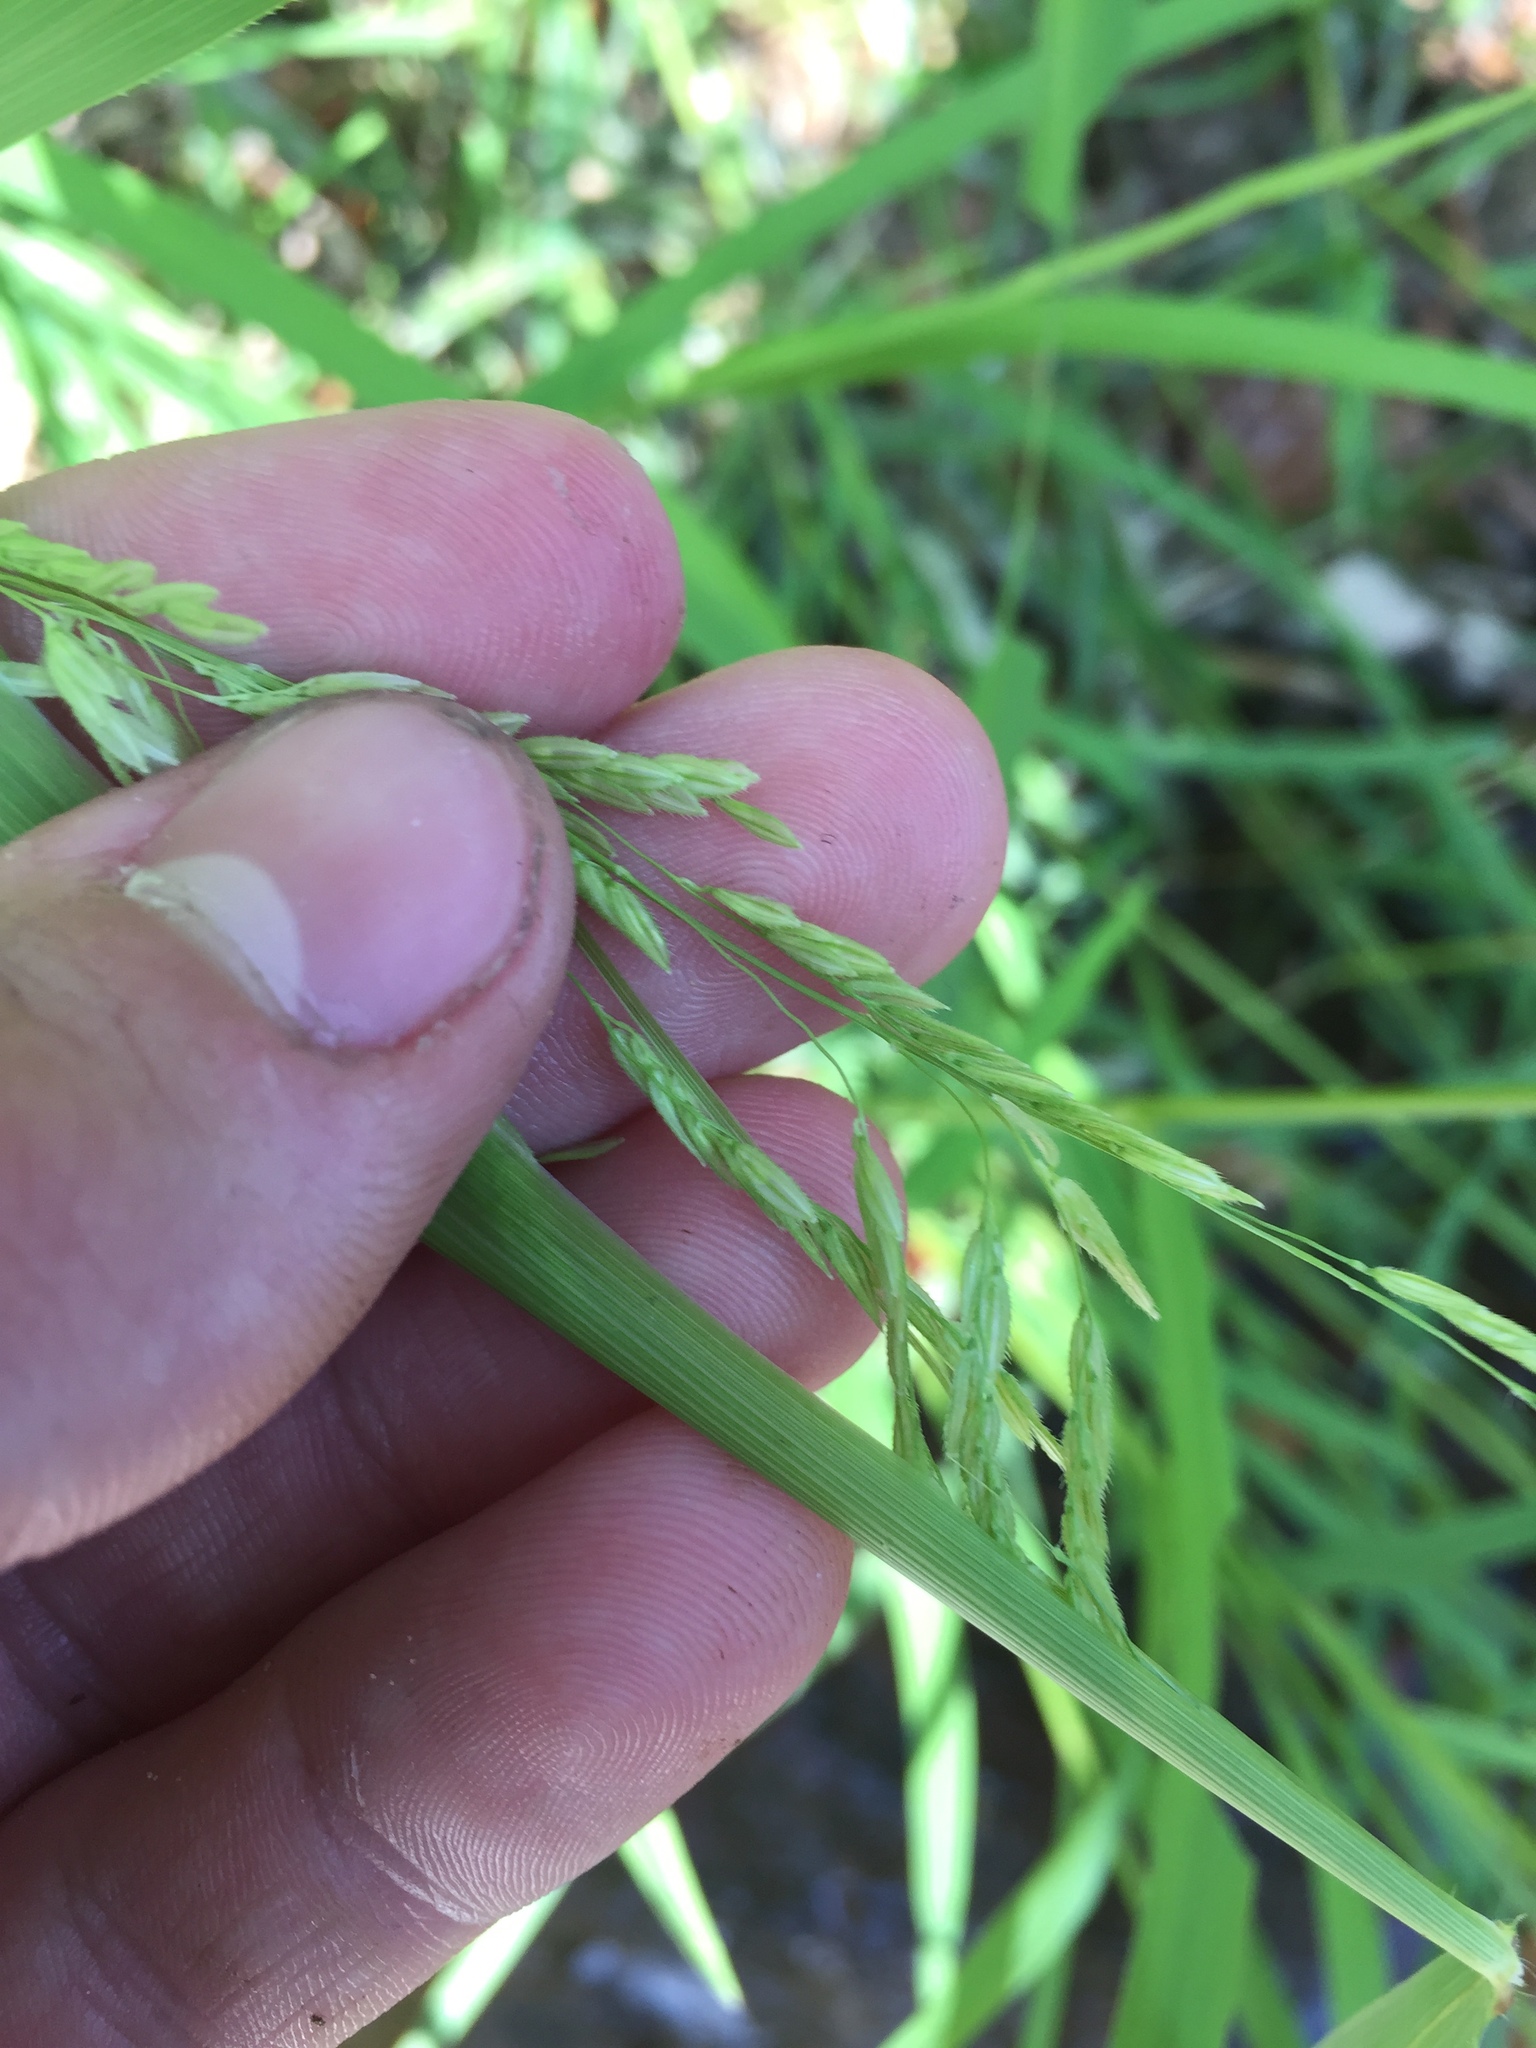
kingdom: Plantae
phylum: Tracheophyta
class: Liliopsida
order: Poales
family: Poaceae
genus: Leersia
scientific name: Leersia oryzoides
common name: Cut-grass
